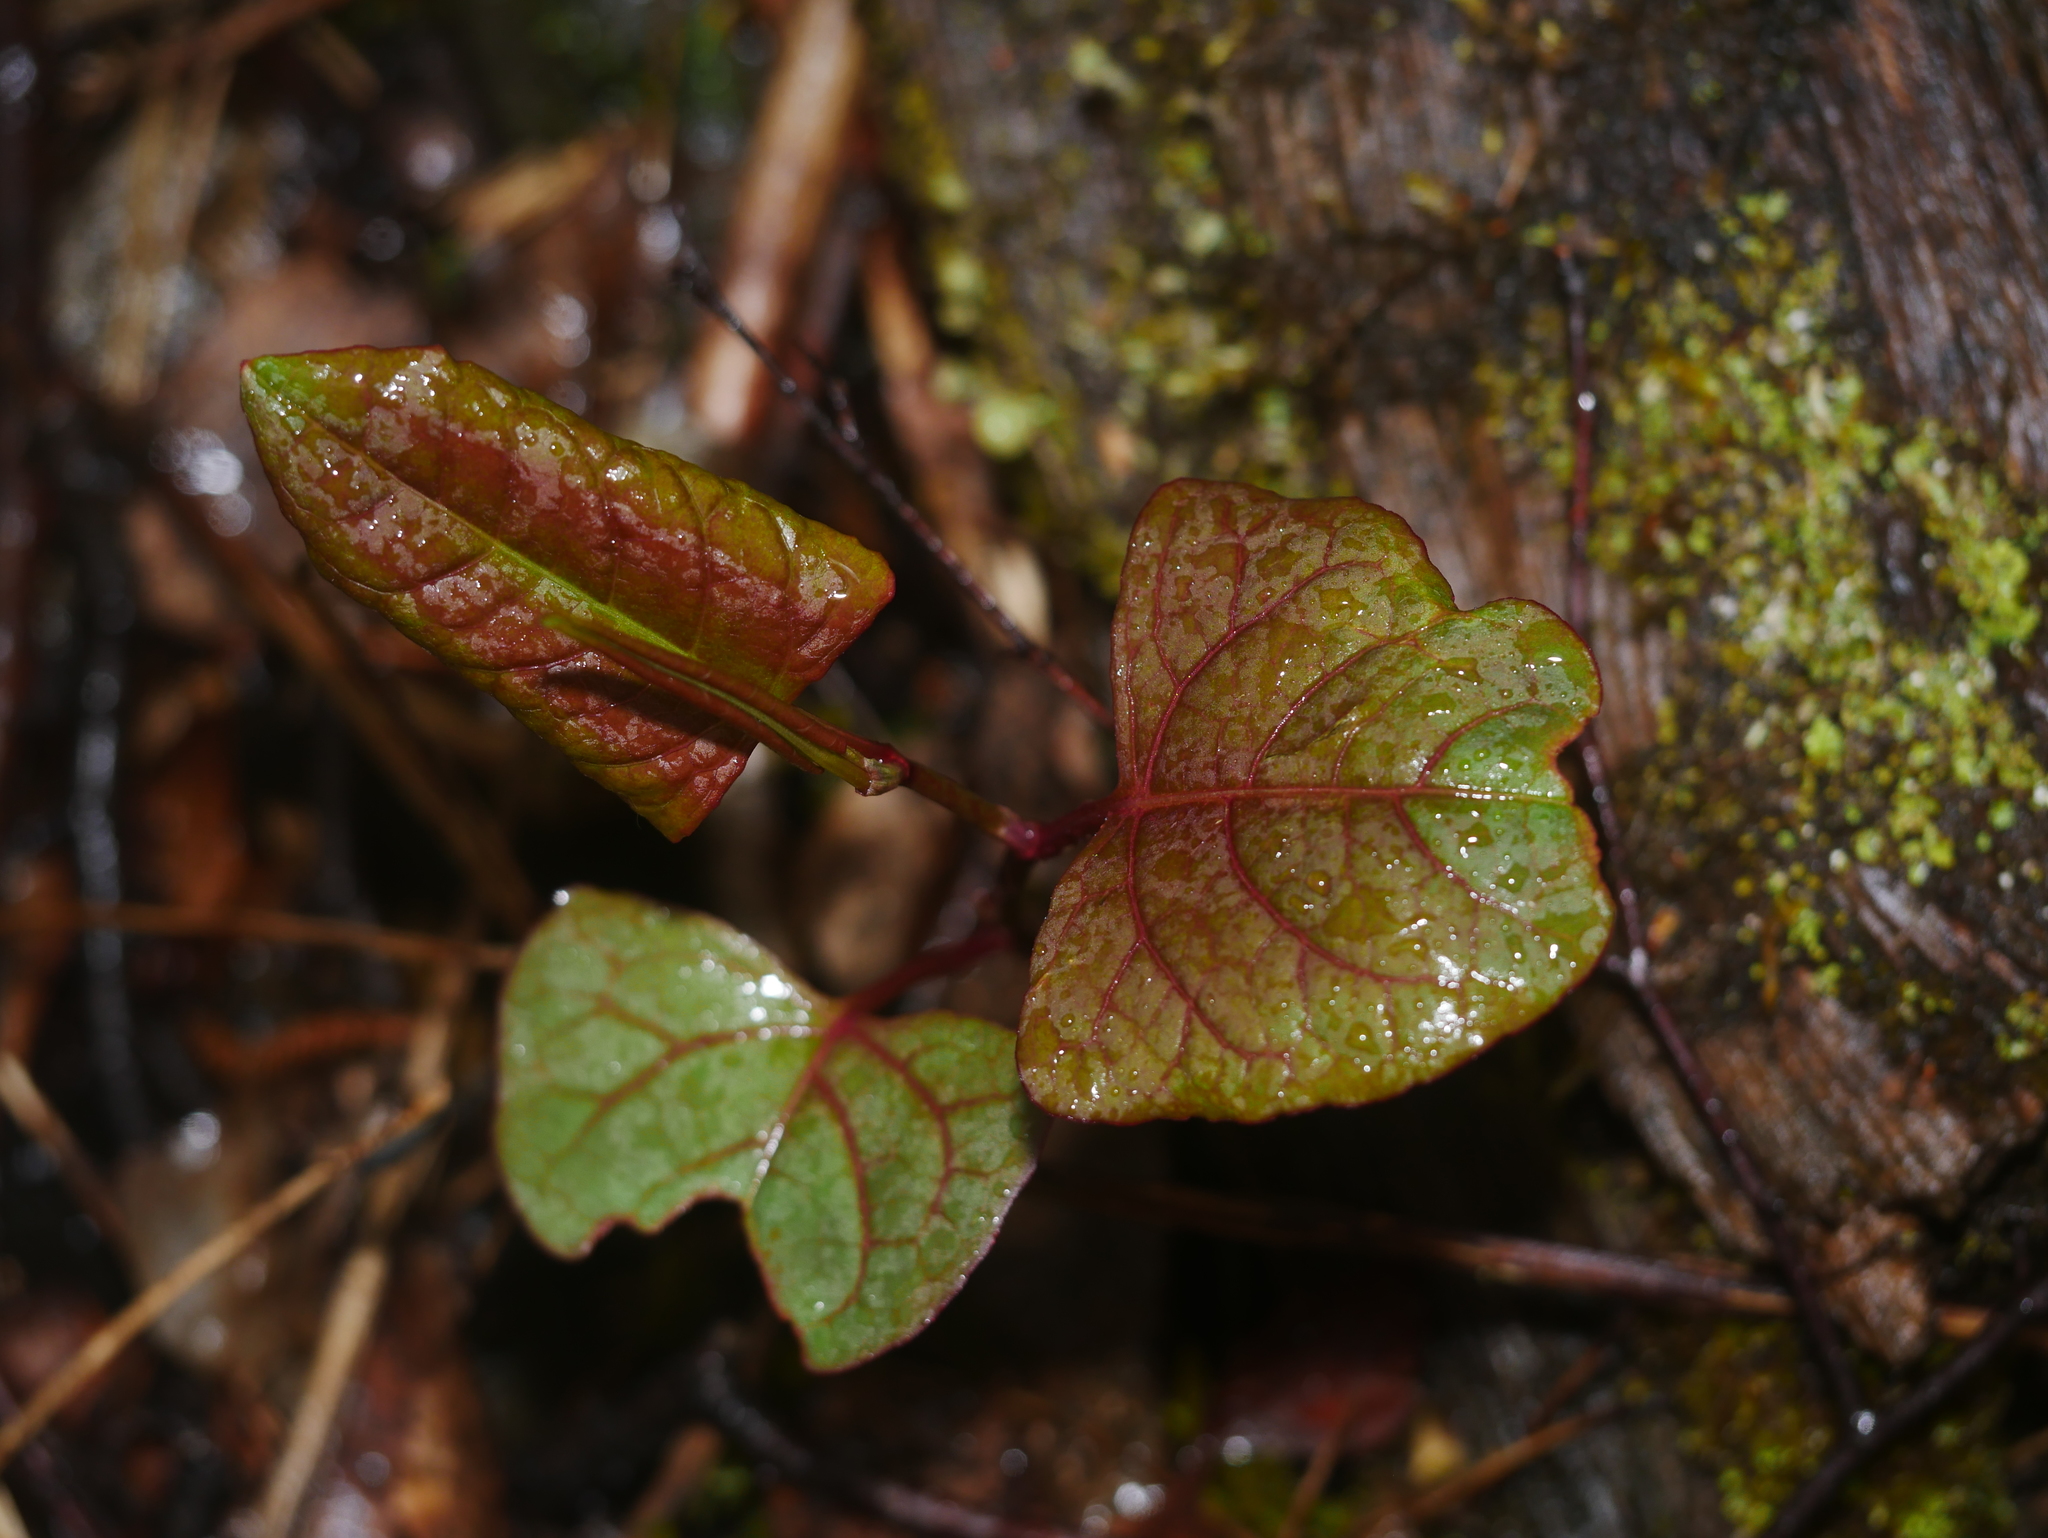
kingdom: Plantae
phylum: Tracheophyta
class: Magnoliopsida
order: Caryophyllales
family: Polygonaceae
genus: Reynoutria
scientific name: Reynoutria japonica
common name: Japanese knotweed
